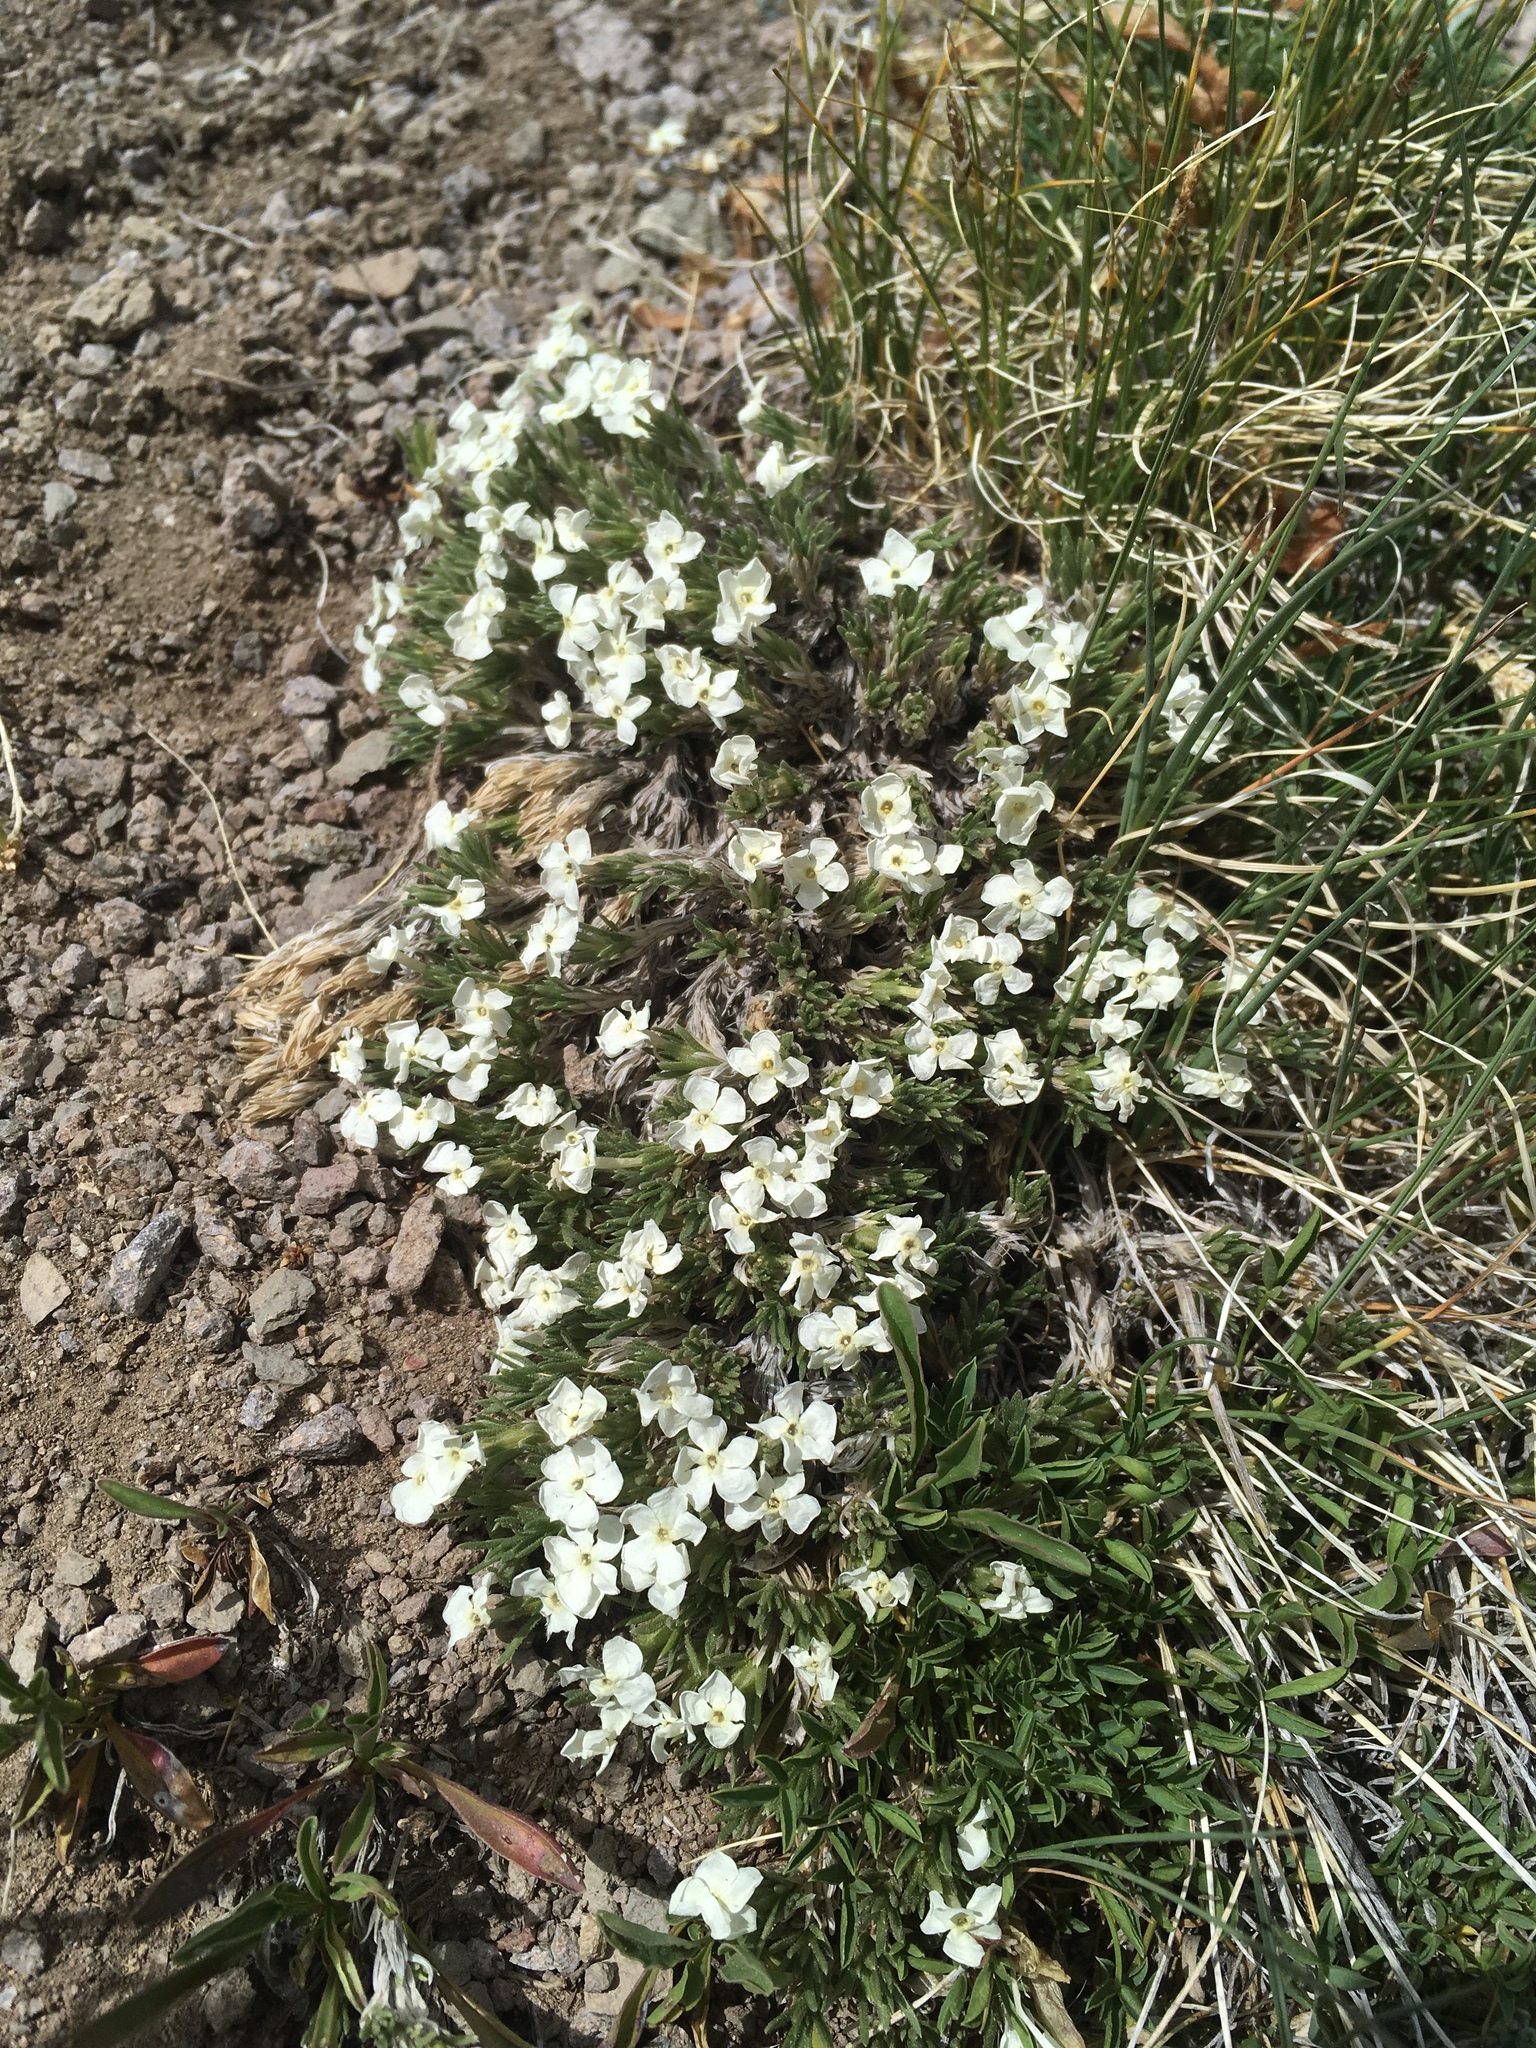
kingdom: Plantae
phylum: Tracheophyta
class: Magnoliopsida
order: Ericales
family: Polemoniaceae
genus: Phlox
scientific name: Phlox condensata
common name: Compact phlox
